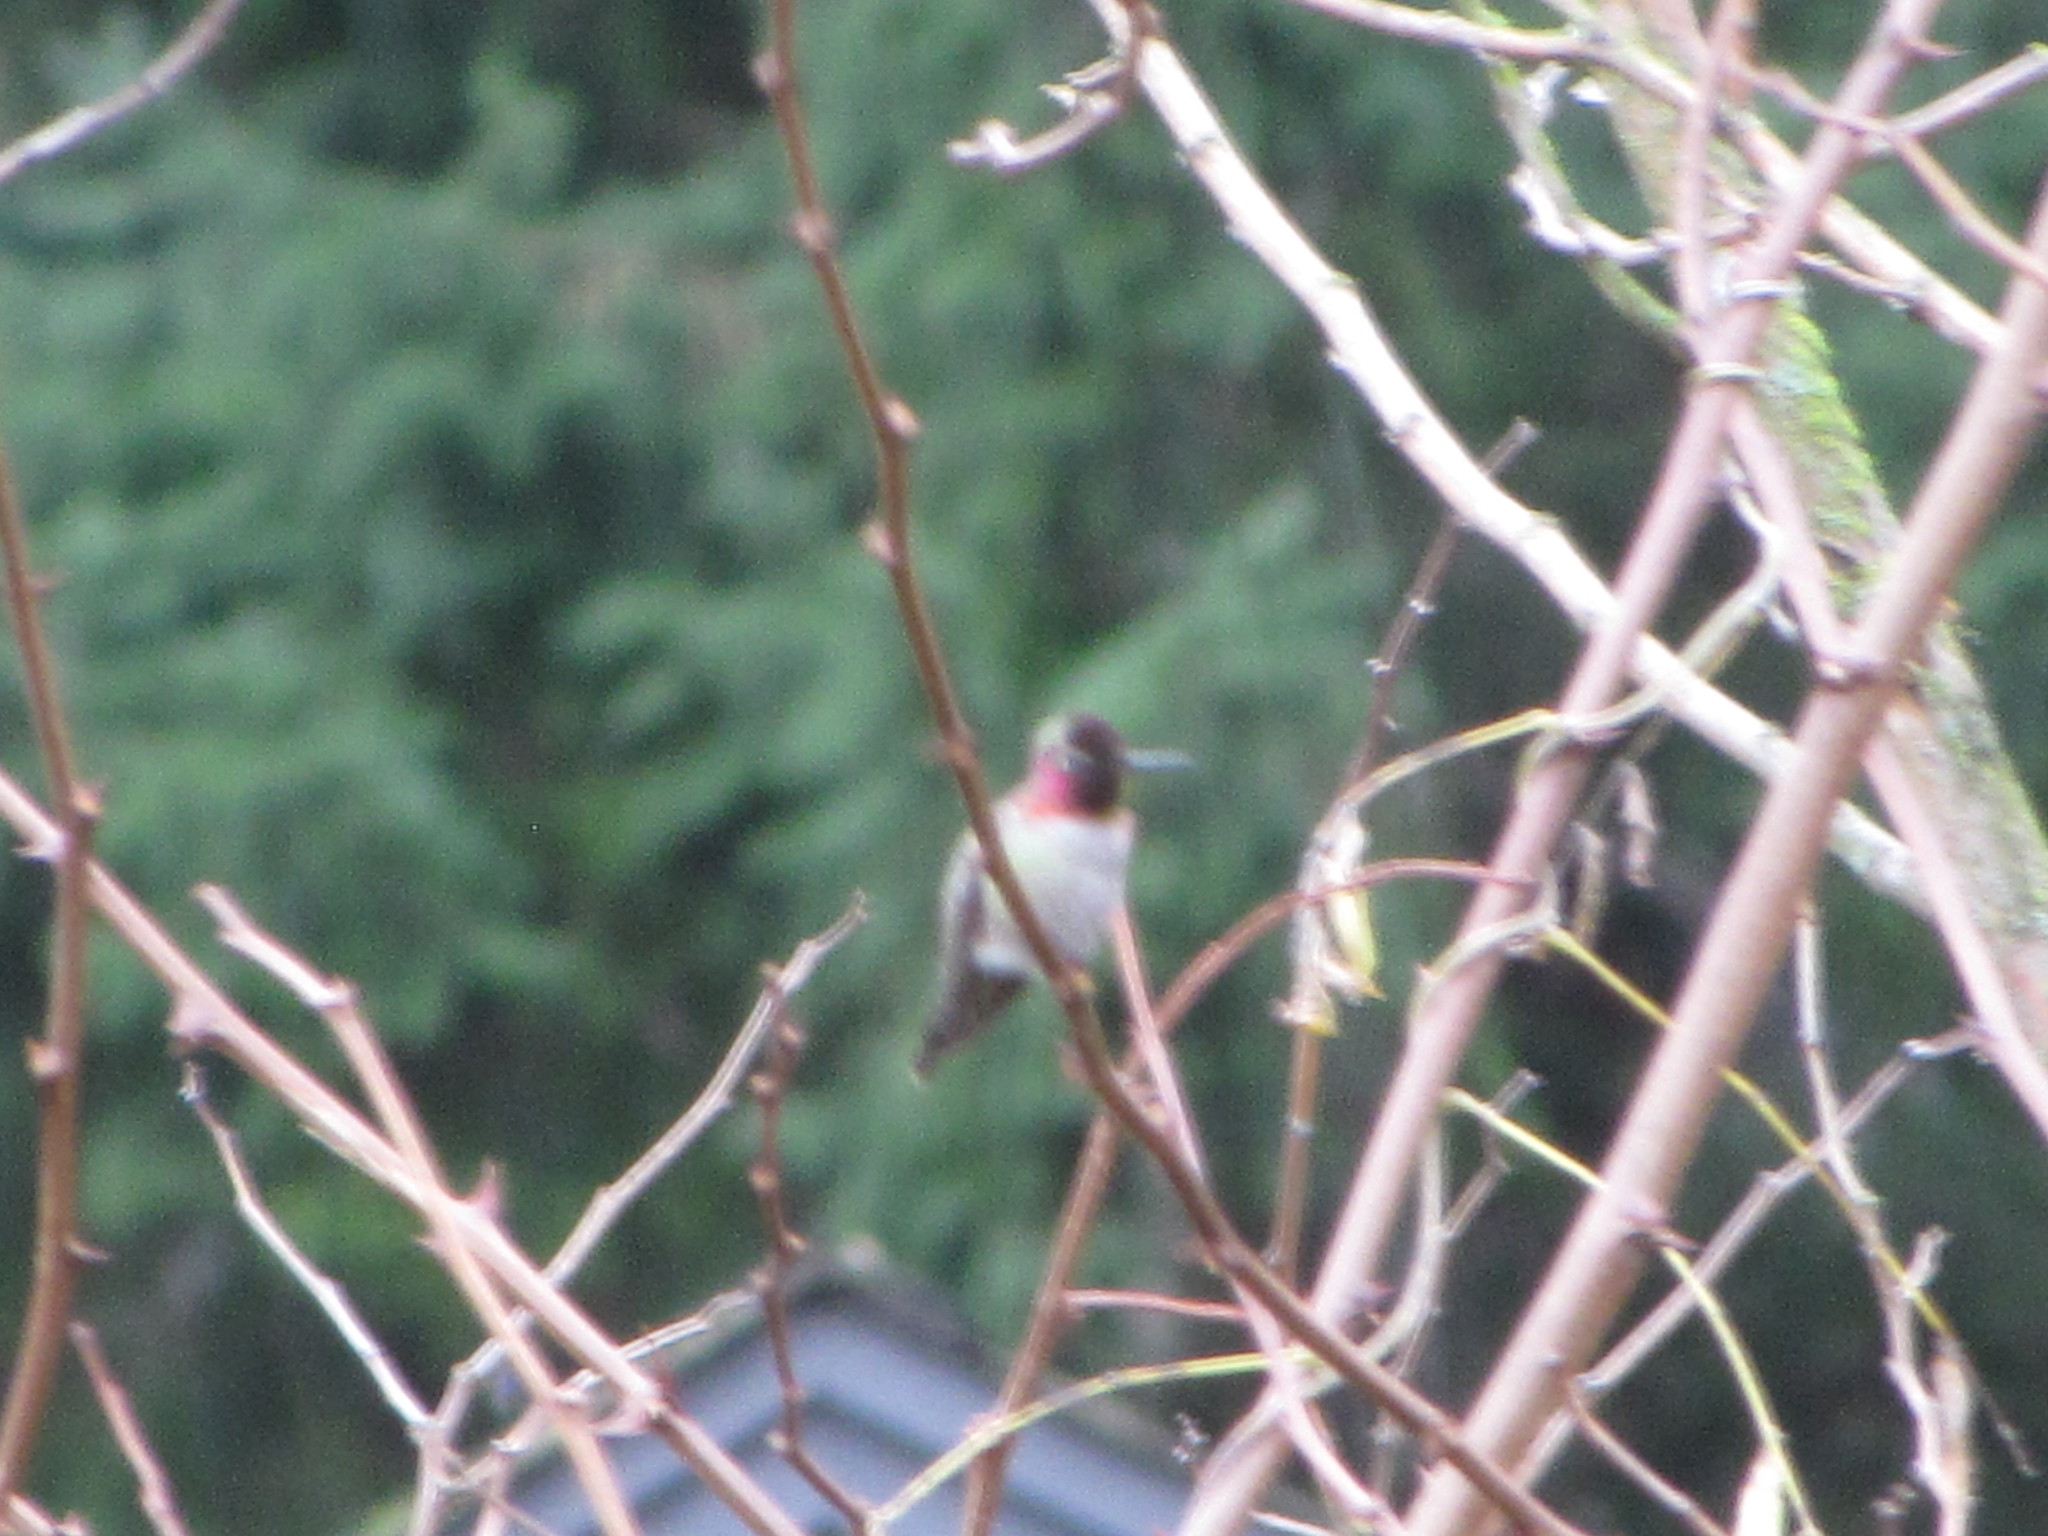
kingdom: Animalia
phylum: Chordata
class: Aves
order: Apodiformes
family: Trochilidae
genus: Calypte
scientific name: Calypte anna
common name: Anna's hummingbird
